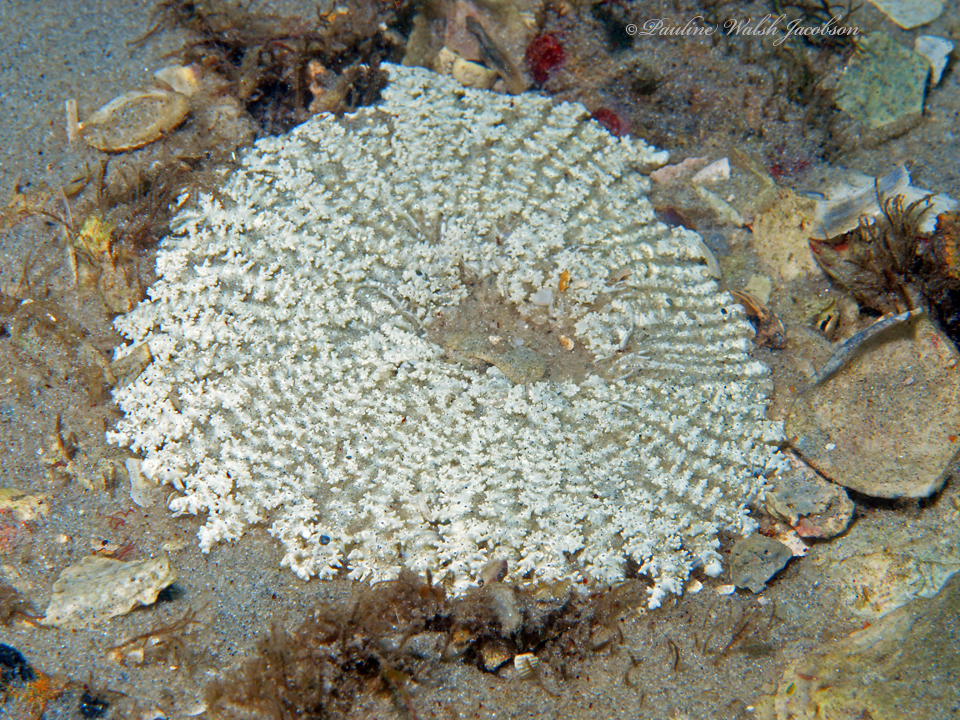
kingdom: Animalia
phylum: Cnidaria
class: Anthozoa
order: Actiniaria
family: Actiniidae
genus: Actinostella
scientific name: Actinostella flosculifera
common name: Collared sand anemone
